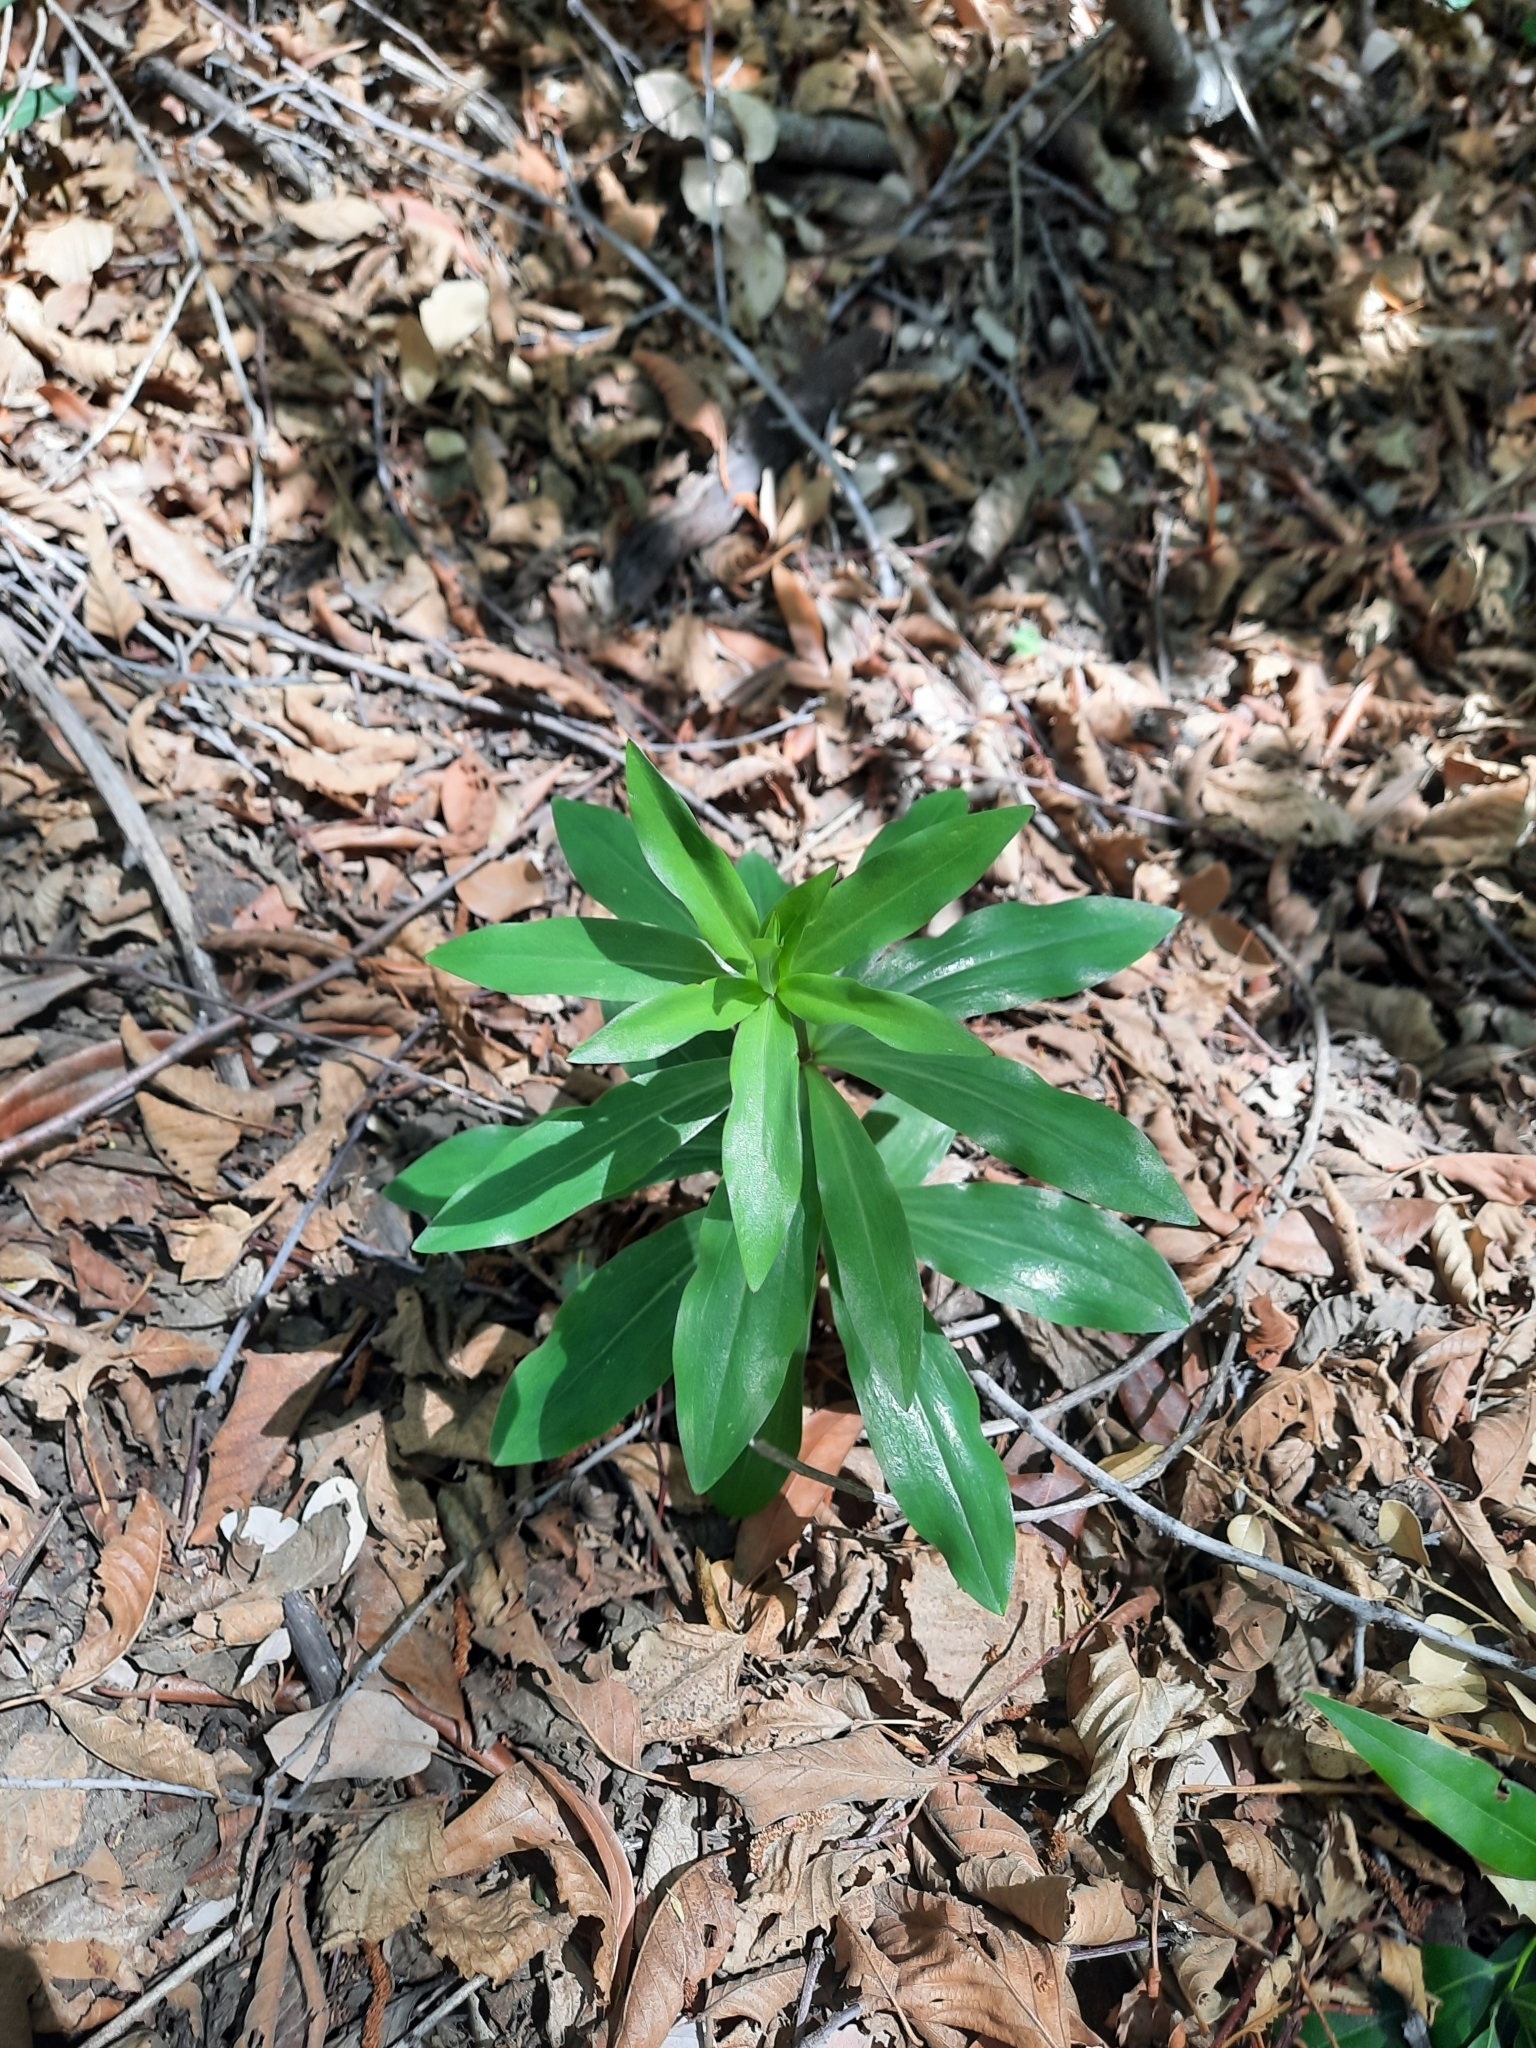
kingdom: Plantae
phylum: Tracheophyta
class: Liliopsida
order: Liliales
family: Liliaceae
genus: Lilium
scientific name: Lilium humboldtii
